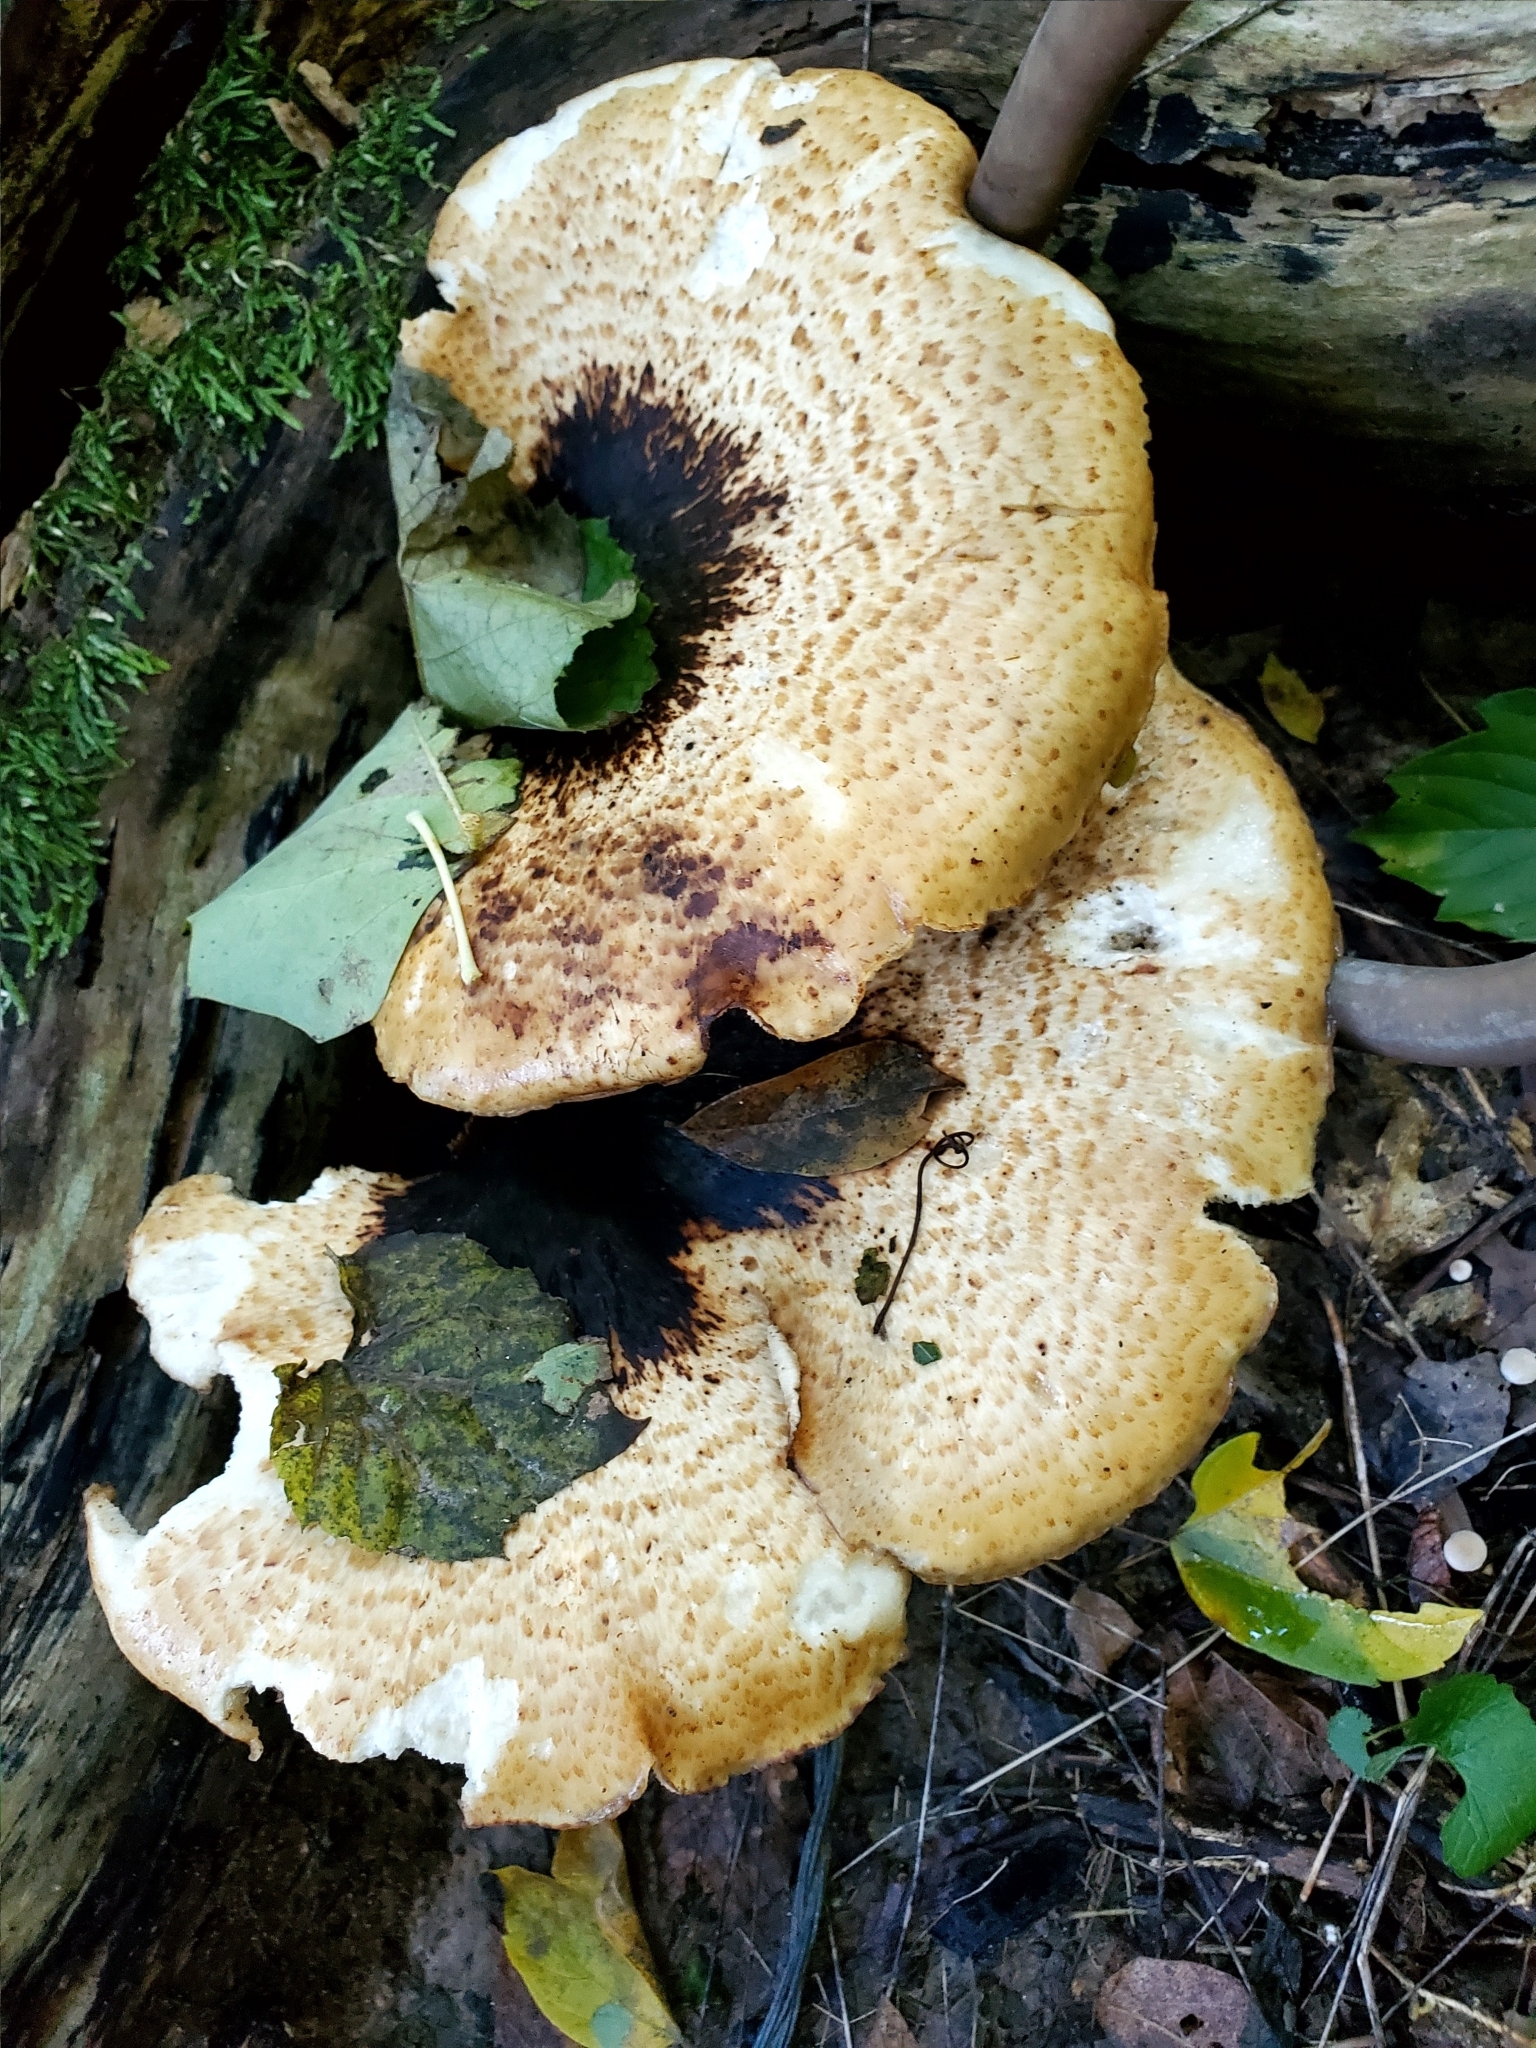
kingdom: Fungi
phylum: Basidiomycota
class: Agaricomycetes
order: Polyporales
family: Polyporaceae
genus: Cerioporus
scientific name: Cerioporus squamosus
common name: Dryad's saddle
